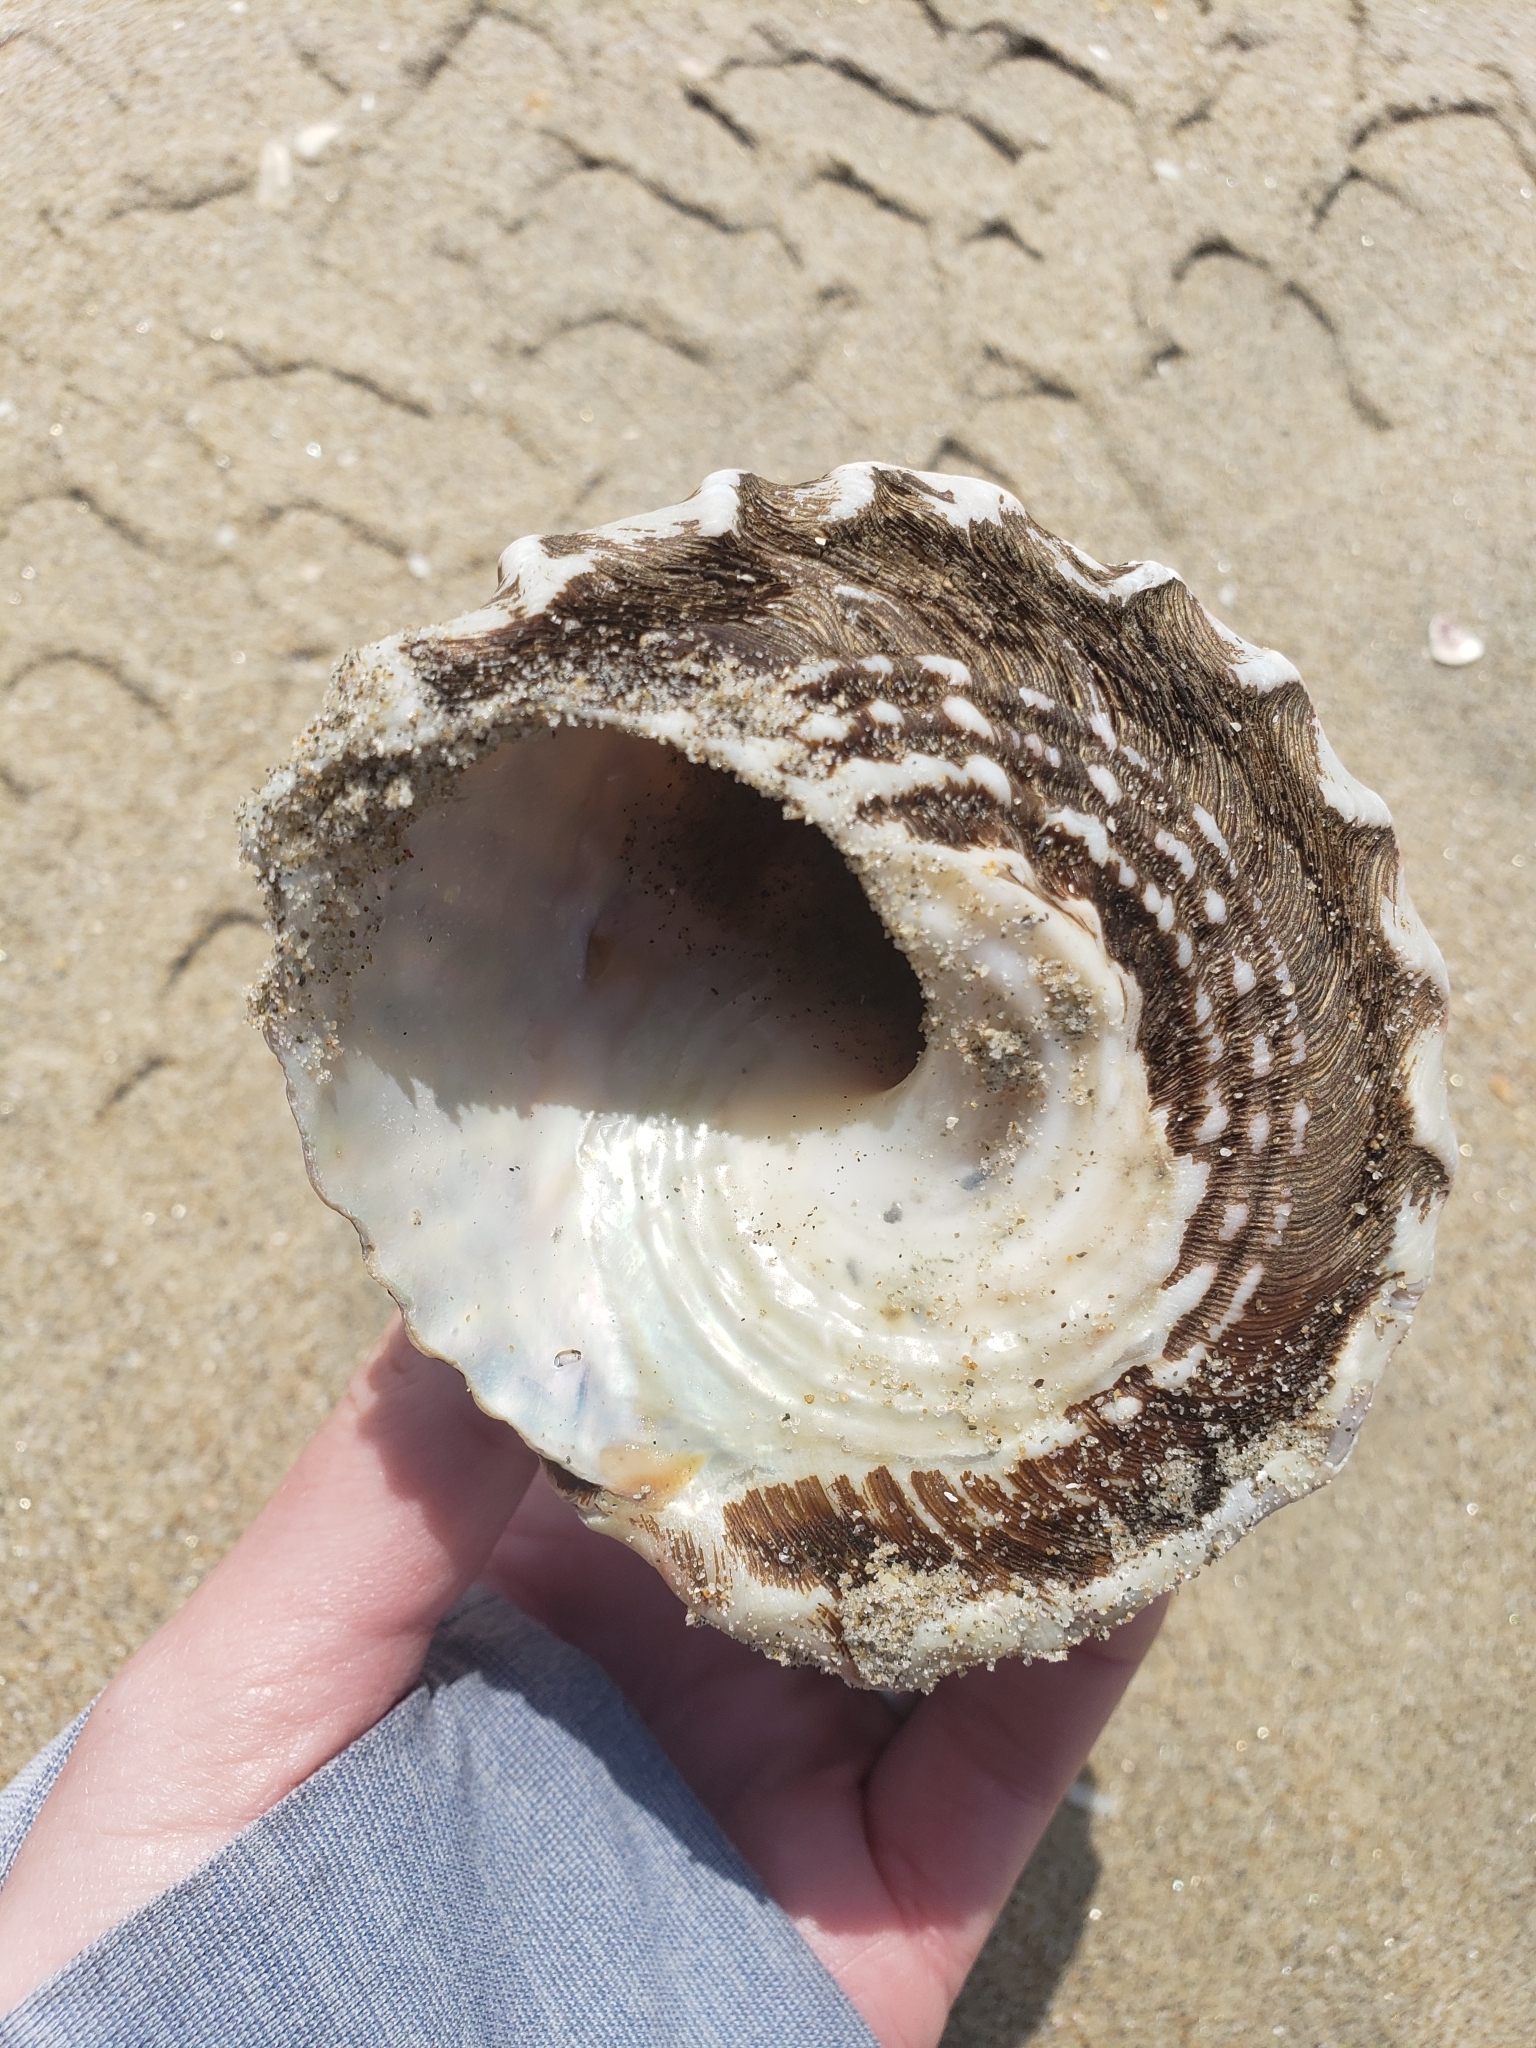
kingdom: Animalia
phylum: Mollusca
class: Gastropoda
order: Trochida
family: Turbinidae
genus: Megastraea
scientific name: Megastraea undosa
